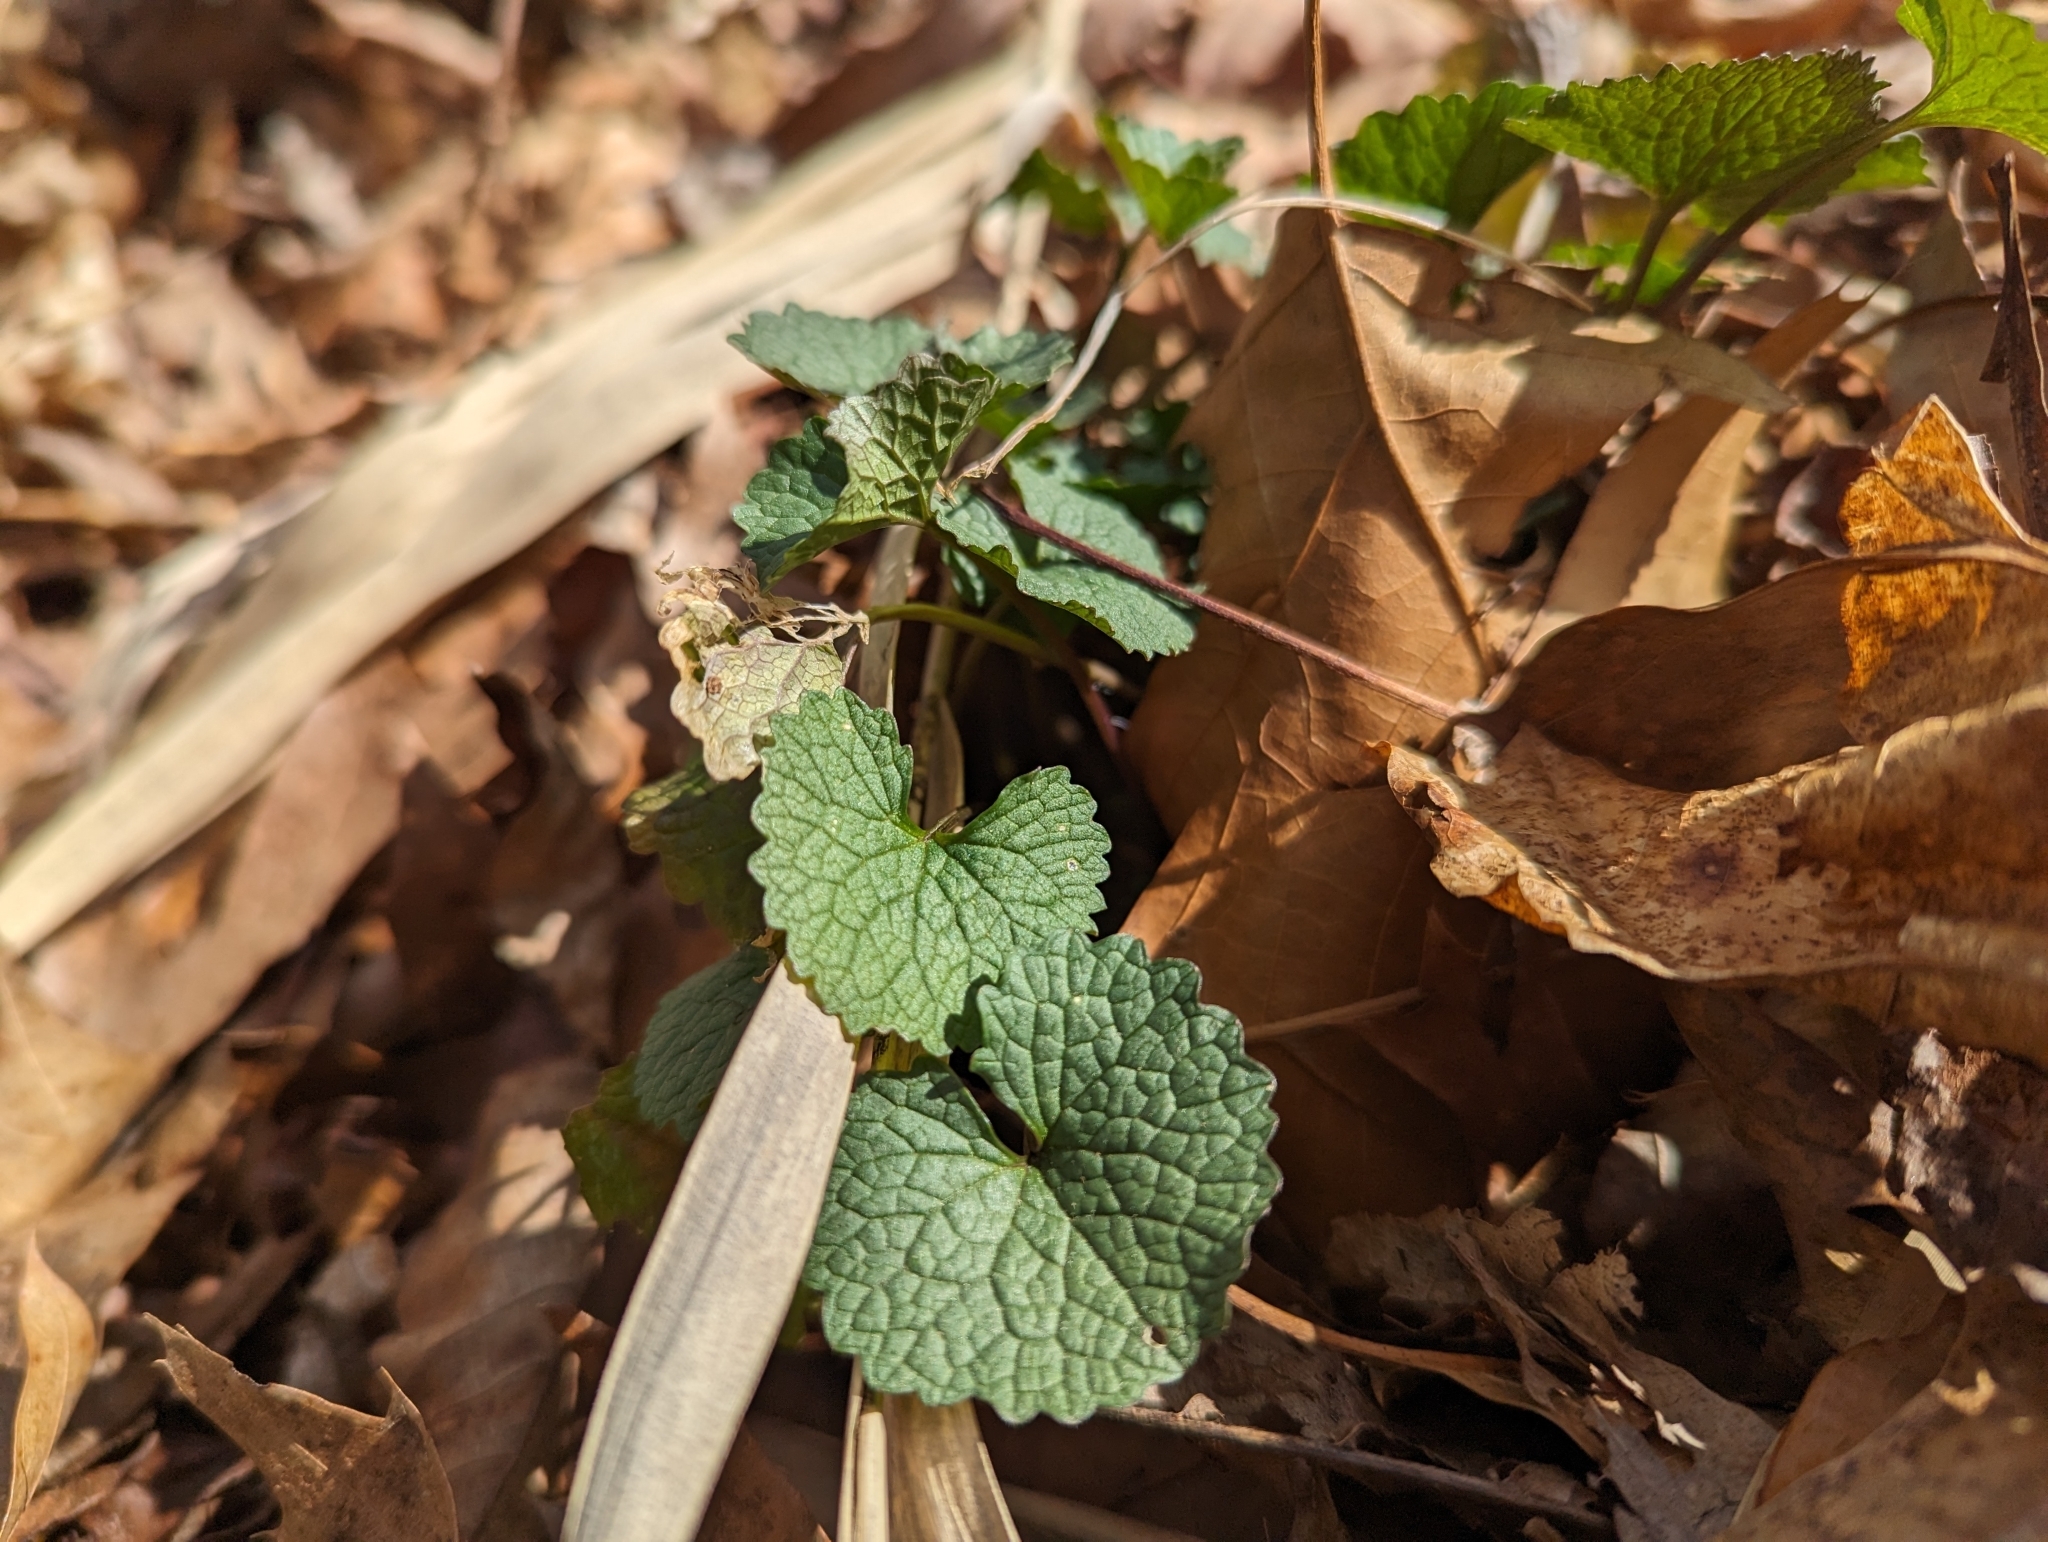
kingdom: Plantae
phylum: Tracheophyta
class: Magnoliopsida
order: Brassicales
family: Brassicaceae
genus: Alliaria
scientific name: Alliaria petiolata
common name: Garlic mustard
